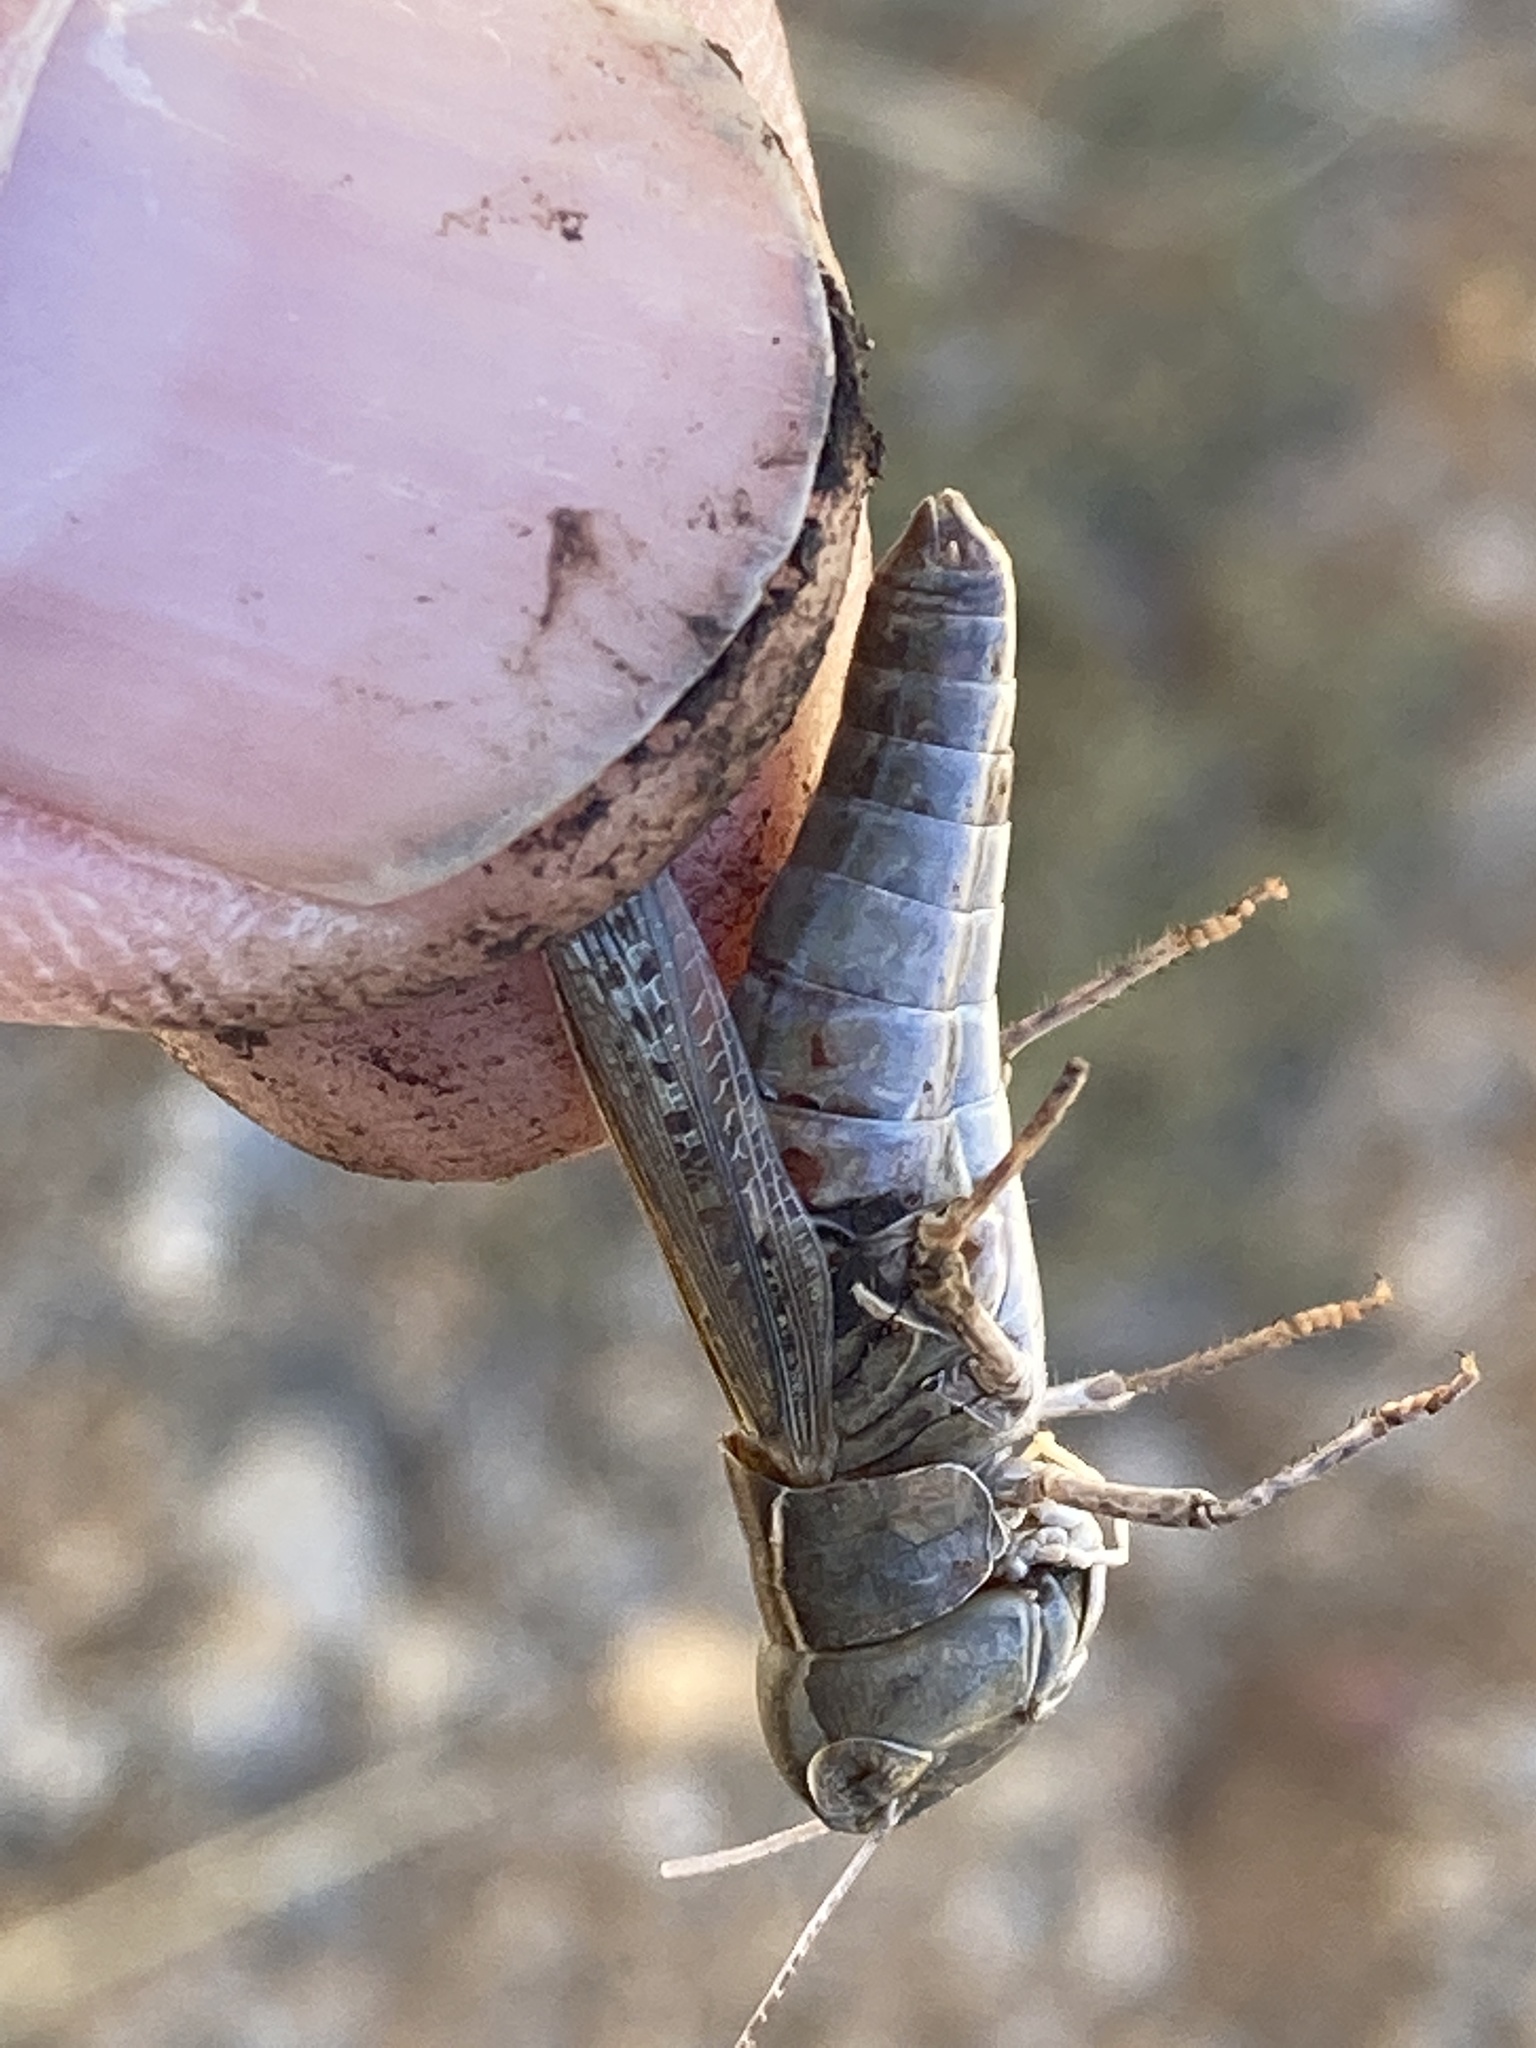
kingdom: Animalia
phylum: Arthropoda
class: Insecta
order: Orthoptera
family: Acrididae
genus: Ageneotettix
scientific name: Ageneotettix deorum
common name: White-whiskered grasshopper
